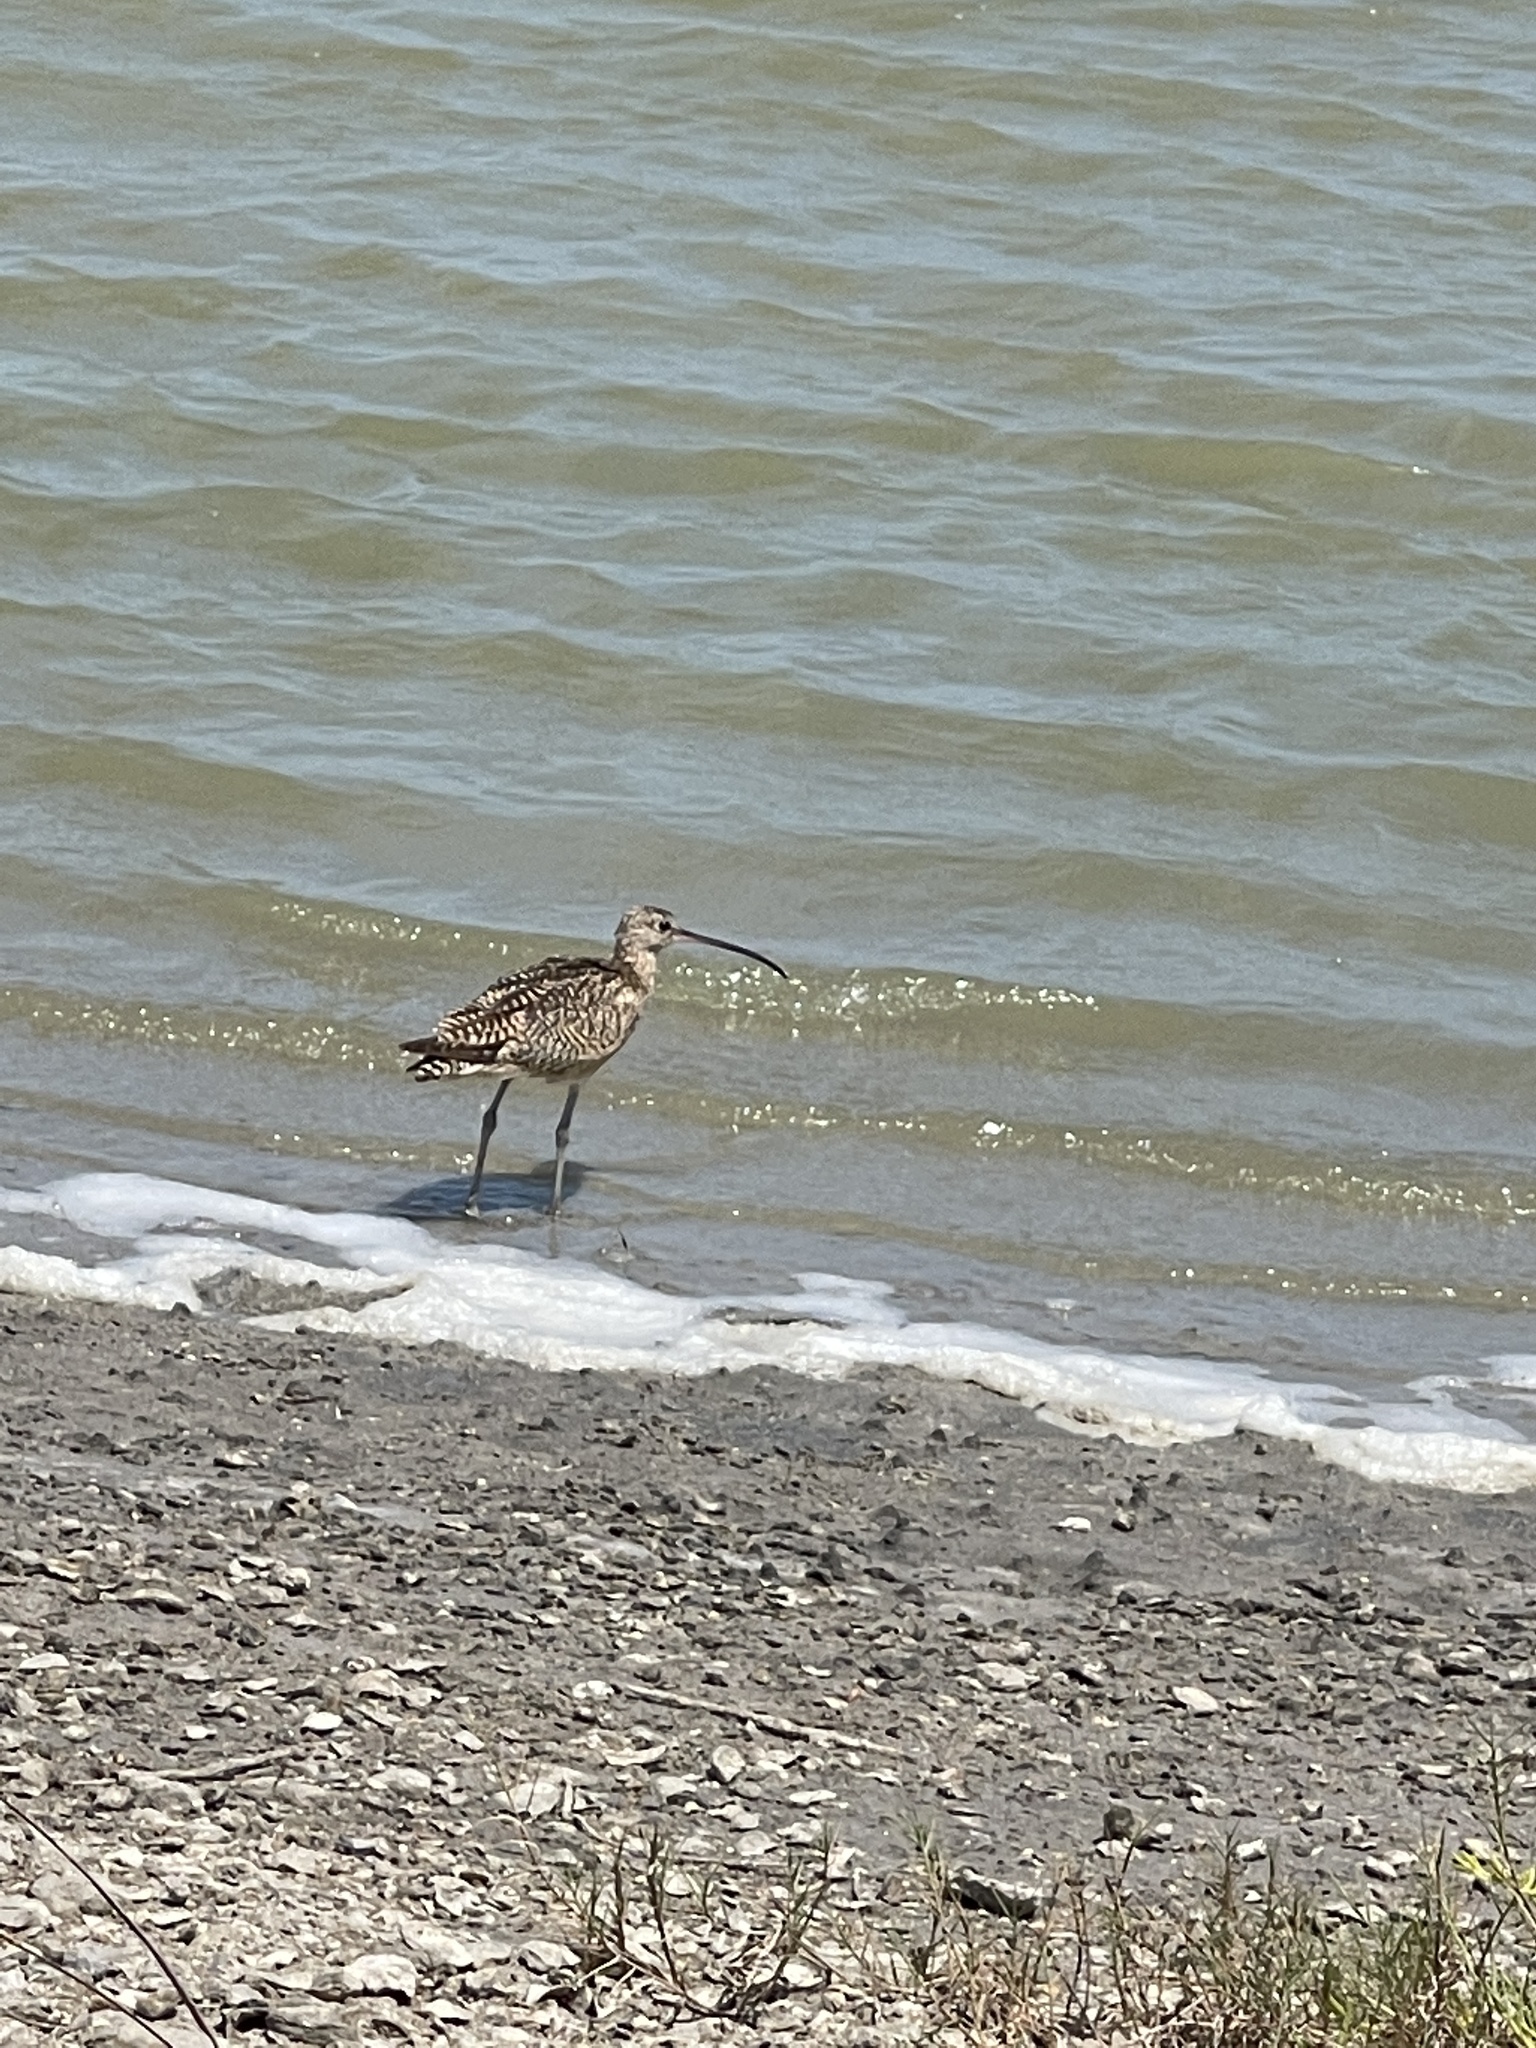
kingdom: Animalia
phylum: Chordata
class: Aves
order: Charadriiformes
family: Scolopacidae
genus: Numenius
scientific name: Numenius americanus
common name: Long-billed curlew
